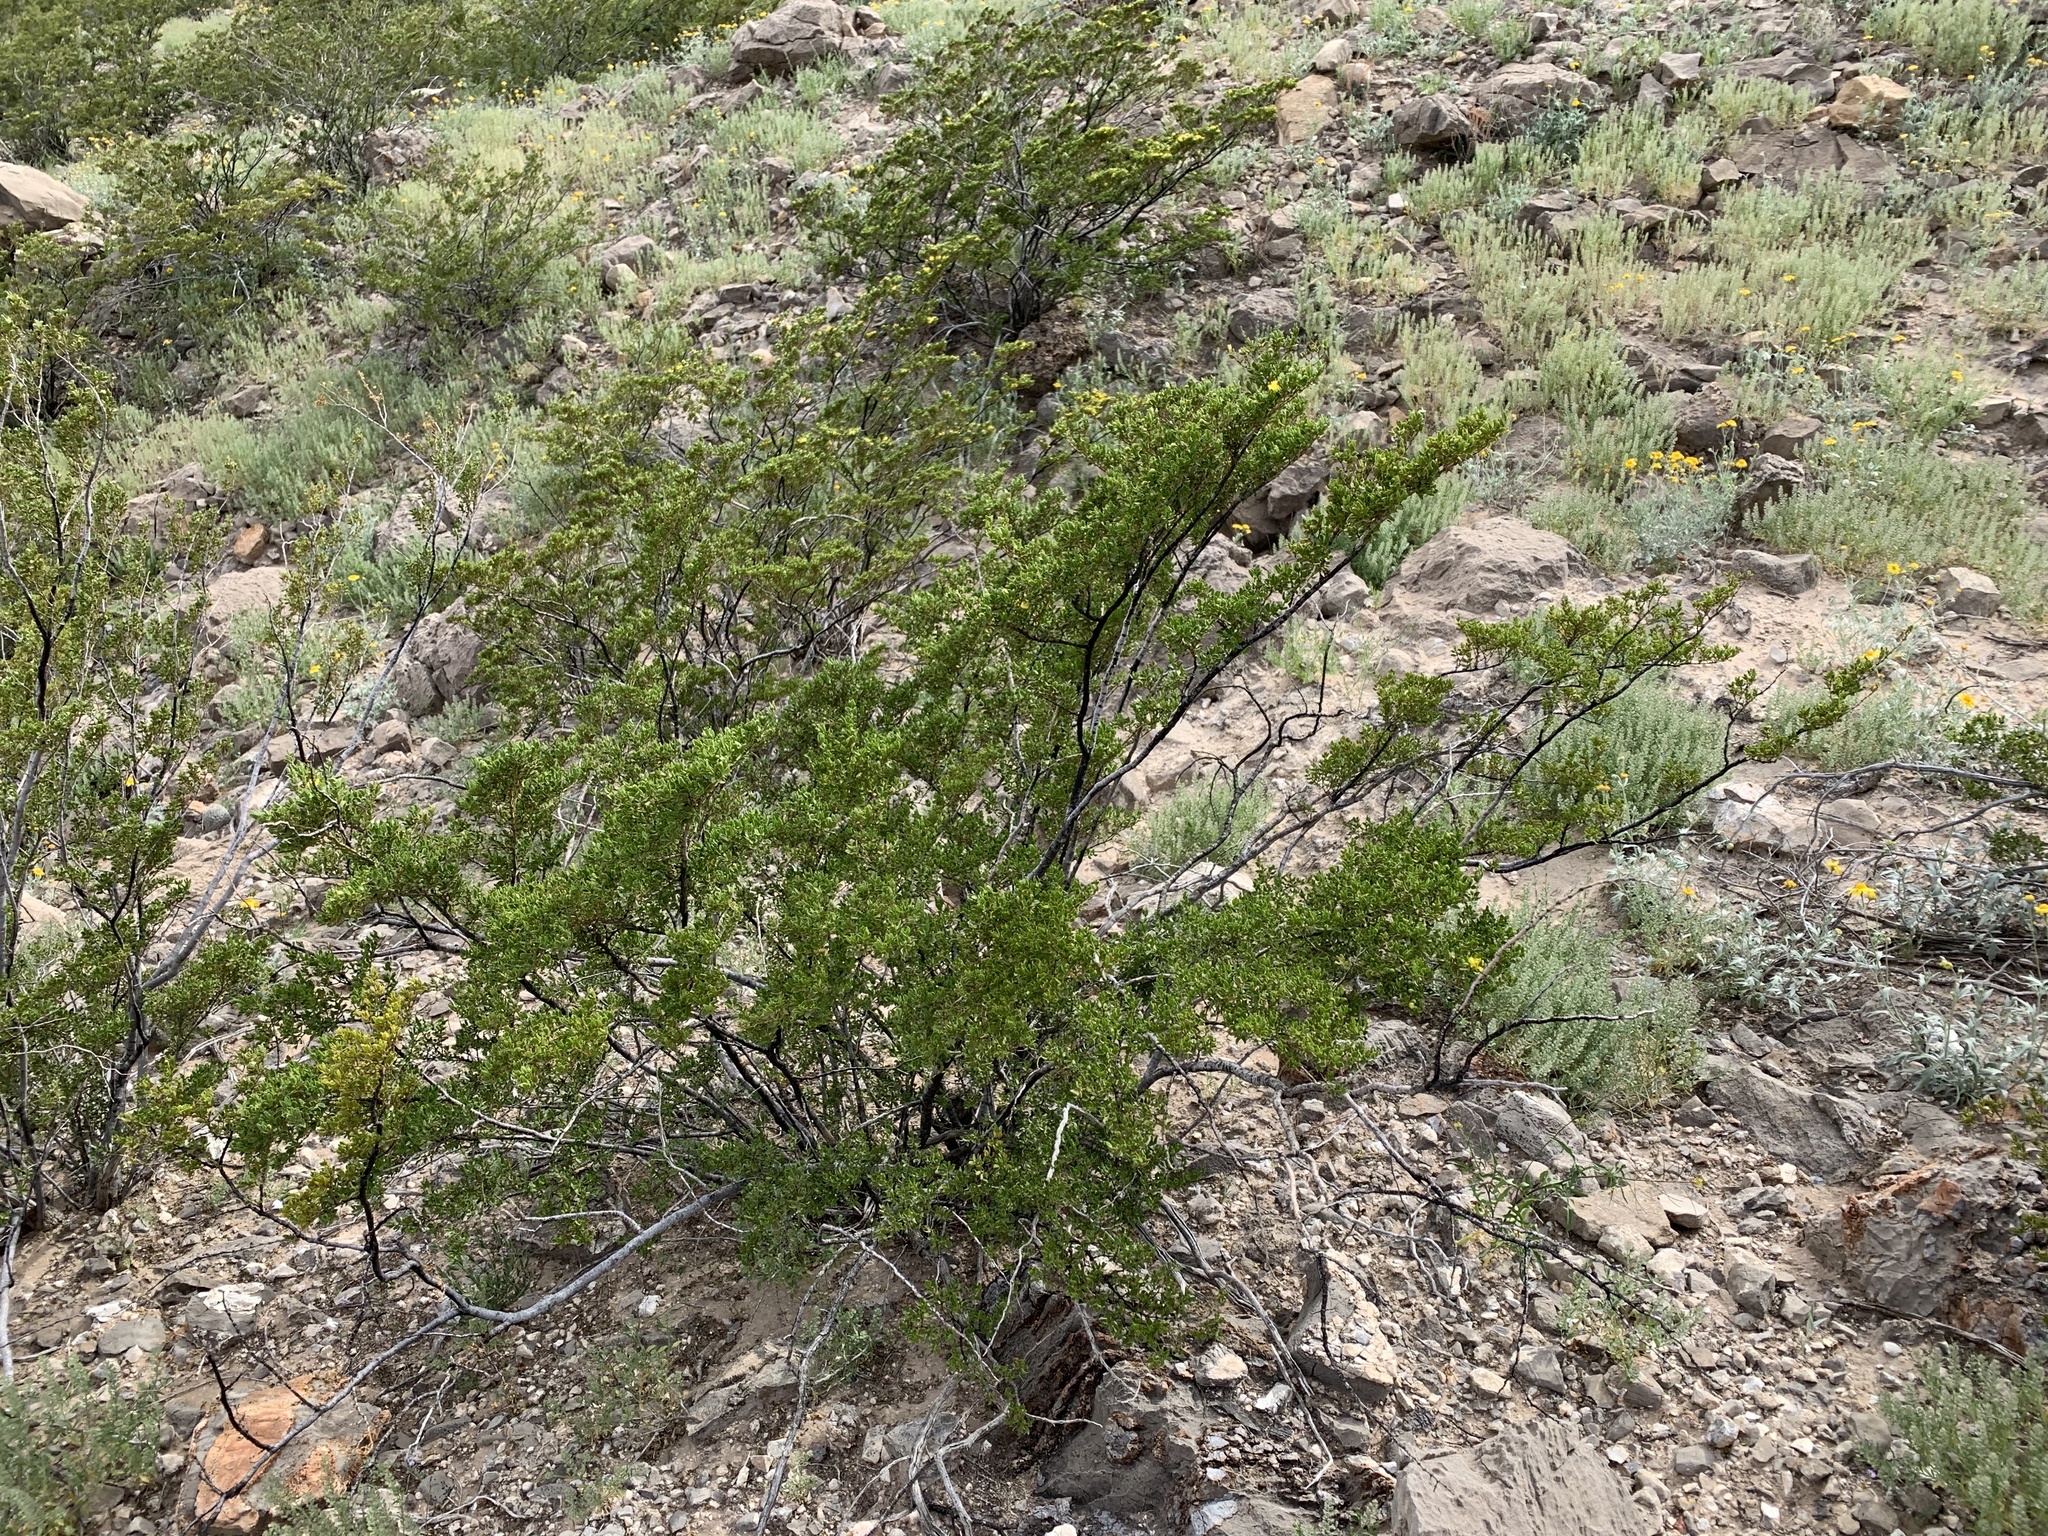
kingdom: Plantae
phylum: Tracheophyta
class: Magnoliopsida
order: Zygophyllales
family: Zygophyllaceae
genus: Larrea
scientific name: Larrea tridentata
